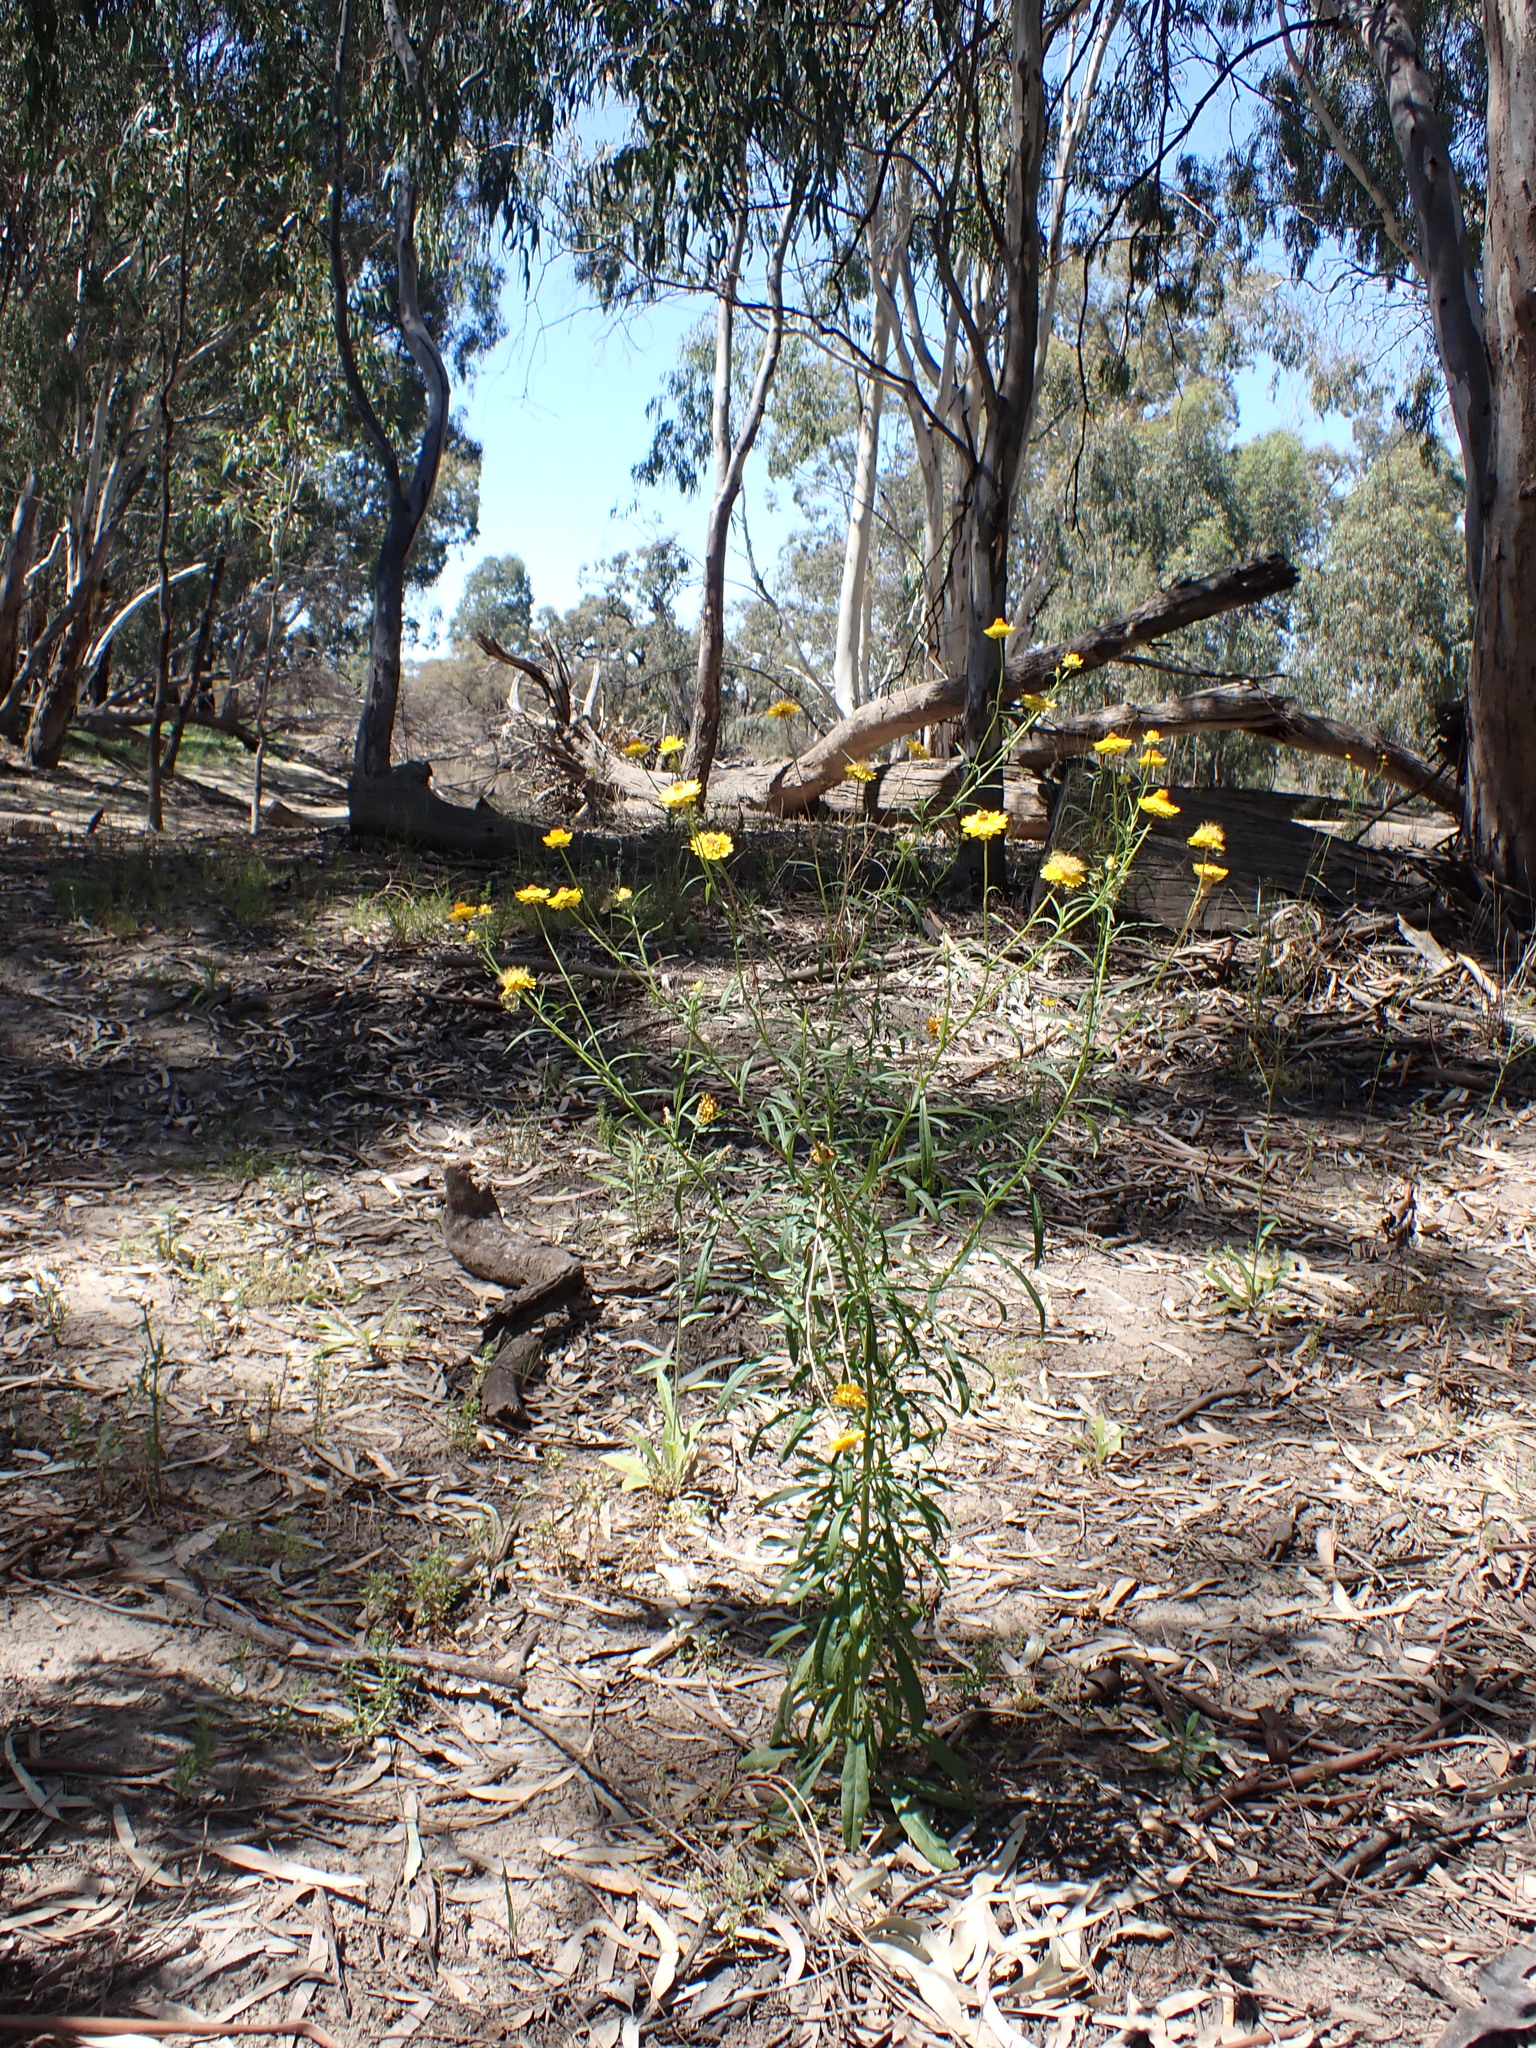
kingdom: Plantae
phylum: Tracheophyta
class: Magnoliopsida
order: Asterales
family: Asteraceae
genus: Xerochrysum
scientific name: Xerochrysum bracteatum
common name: Bracted strawflower
